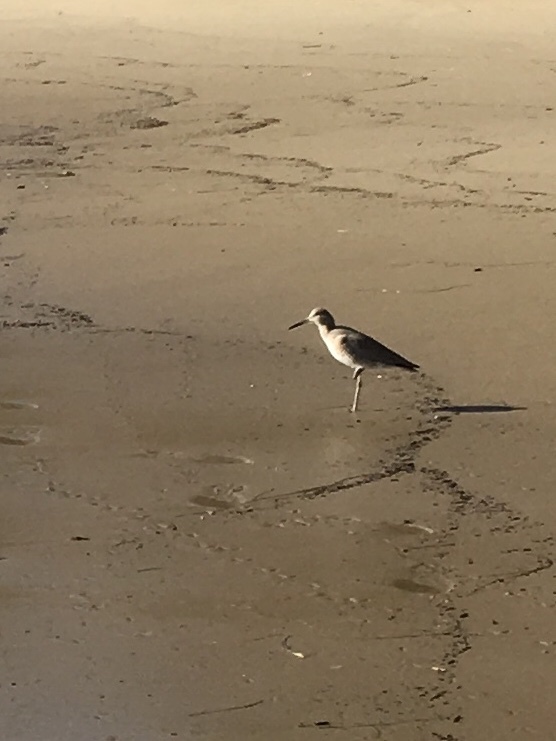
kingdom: Animalia
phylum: Chordata
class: Aves
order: Charadriiformes
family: Scolopacidae
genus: Tringa
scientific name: Tringa semipalmata
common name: Willet
